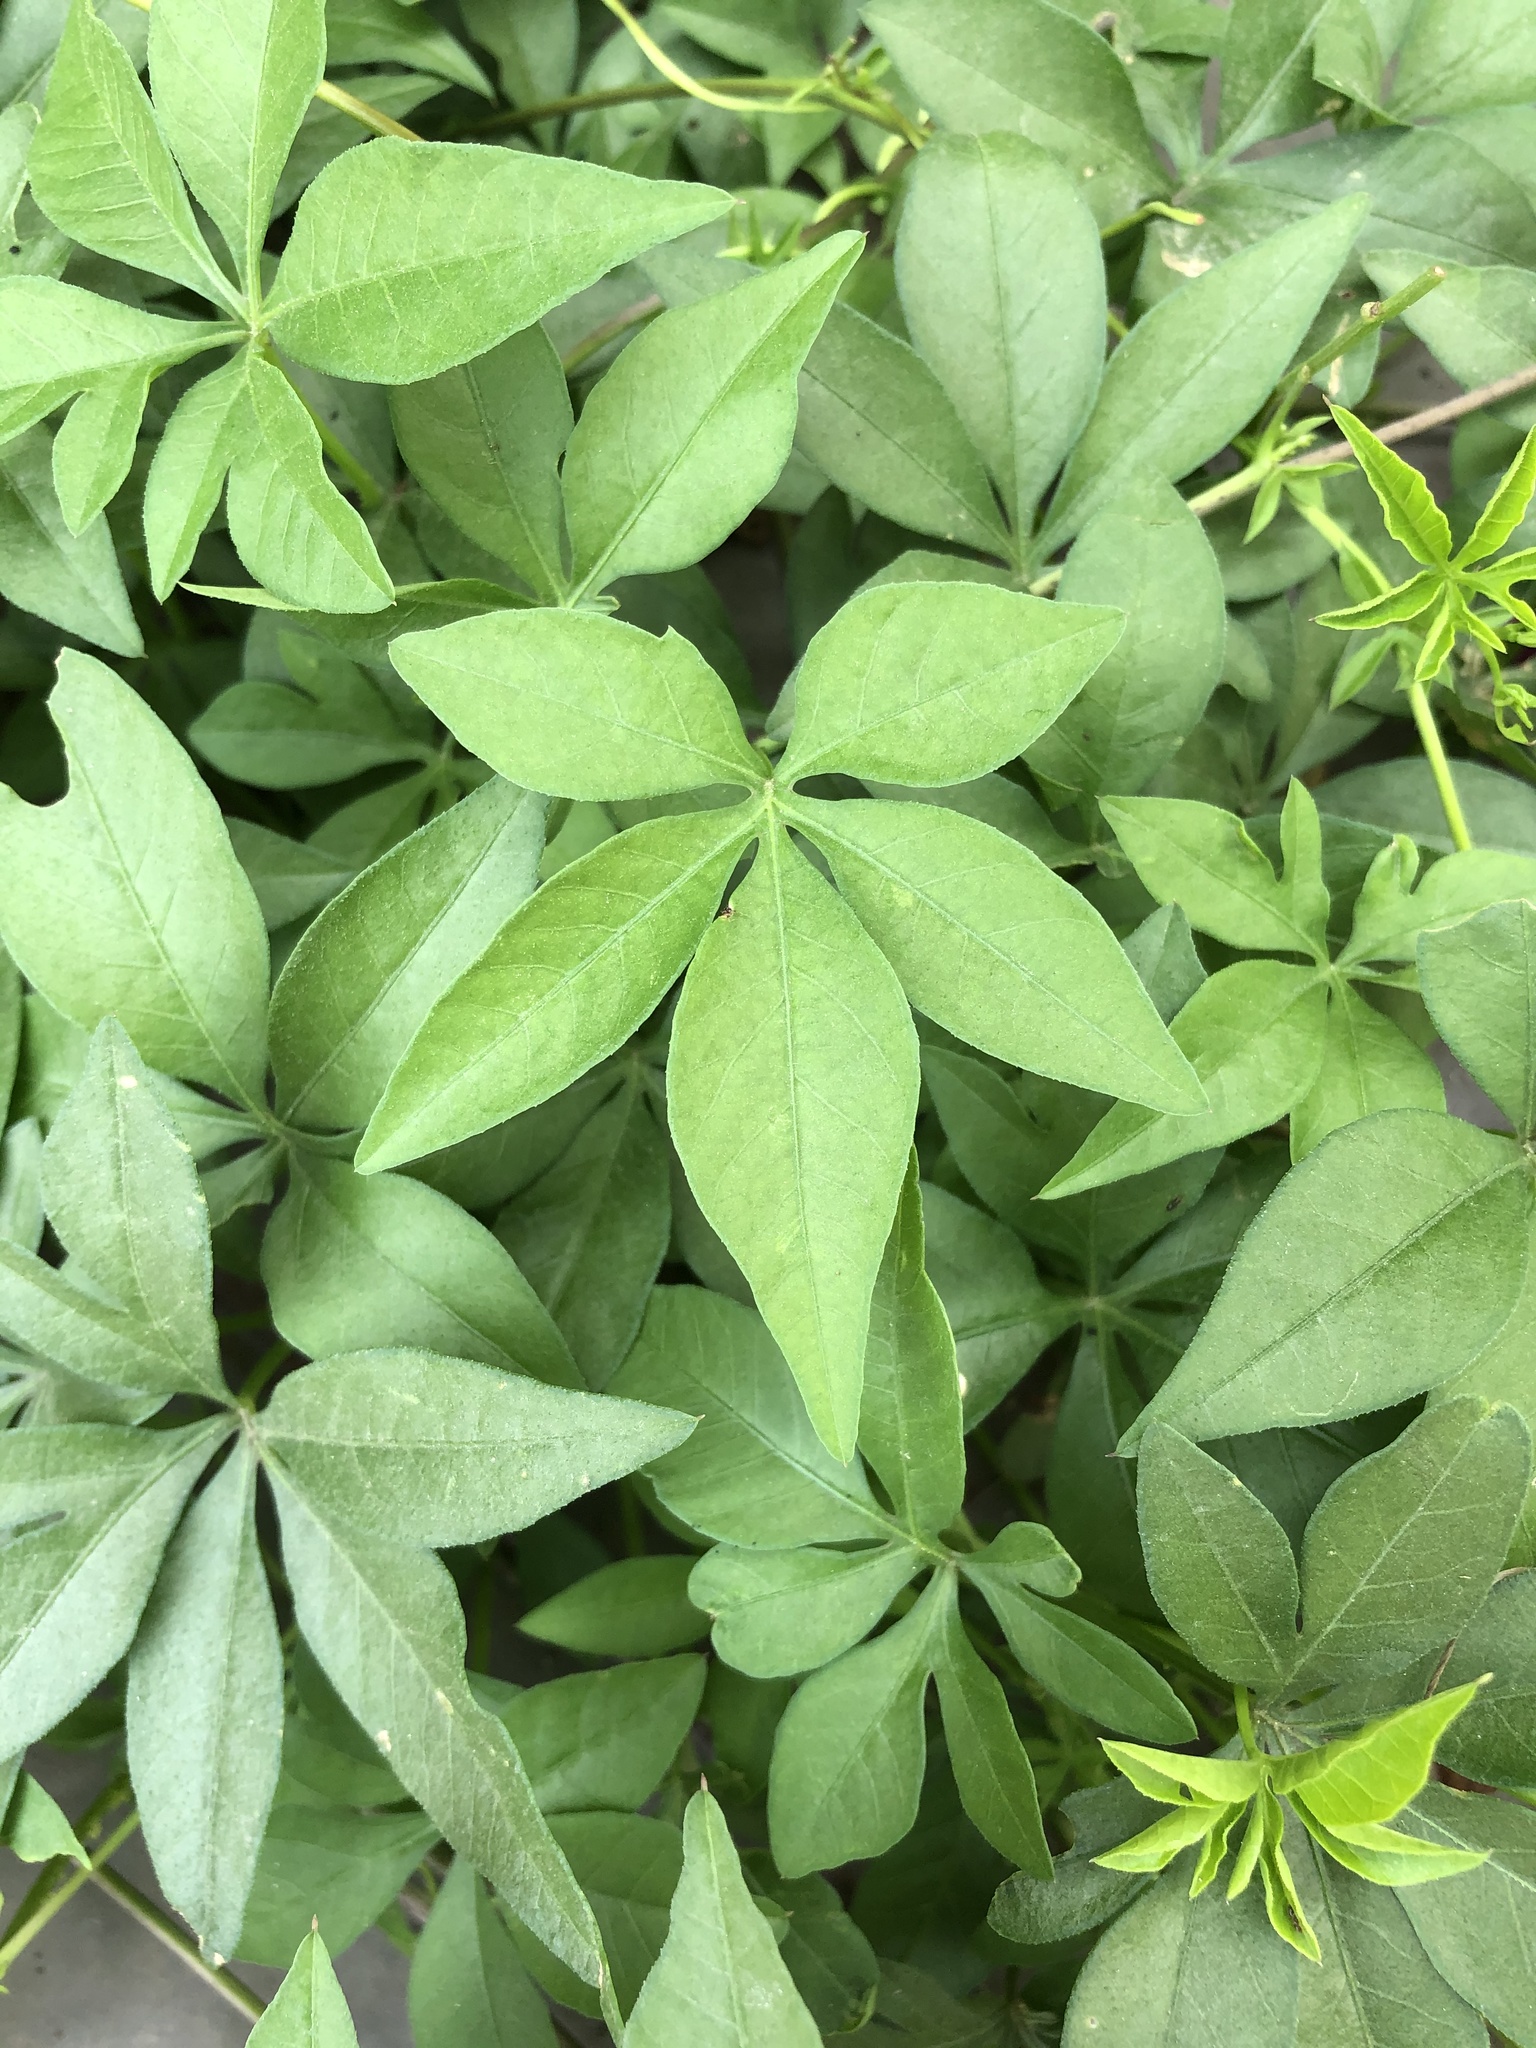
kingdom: Plantae
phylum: Tracheophyta
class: Magnoliopsida
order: Solanales
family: Convolvulaceae
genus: Ipomoea
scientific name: Ipomoea cairica
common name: Mile a minute vine
